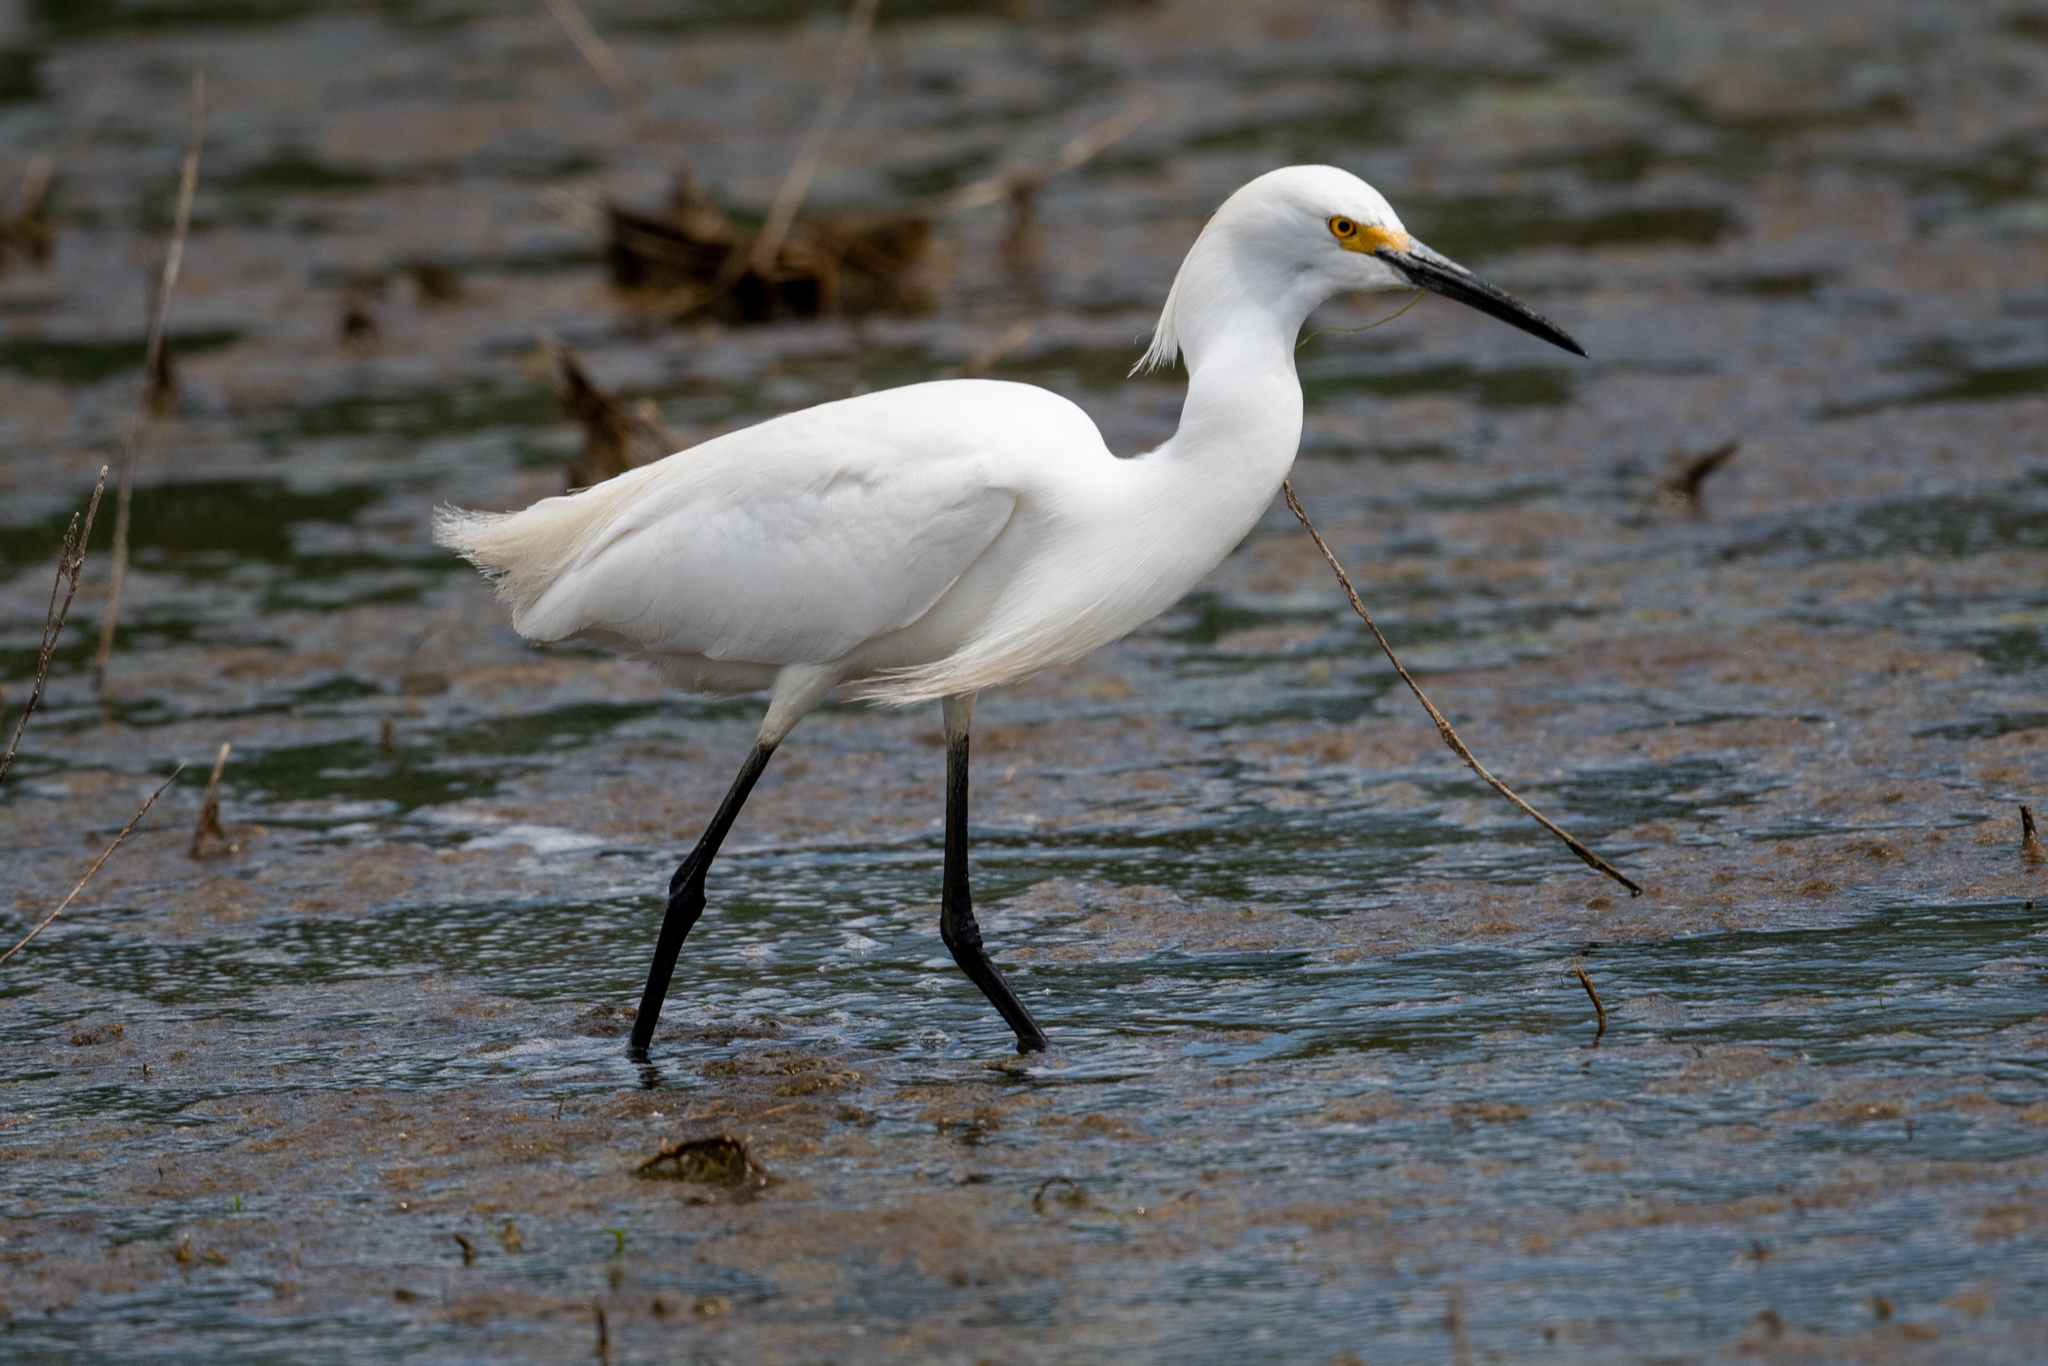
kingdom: Animalia
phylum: Chordata
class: Aves
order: Pelecaniformes
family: Ardeidae
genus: Egretta
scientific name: Egretta thula
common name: Snowy egret
